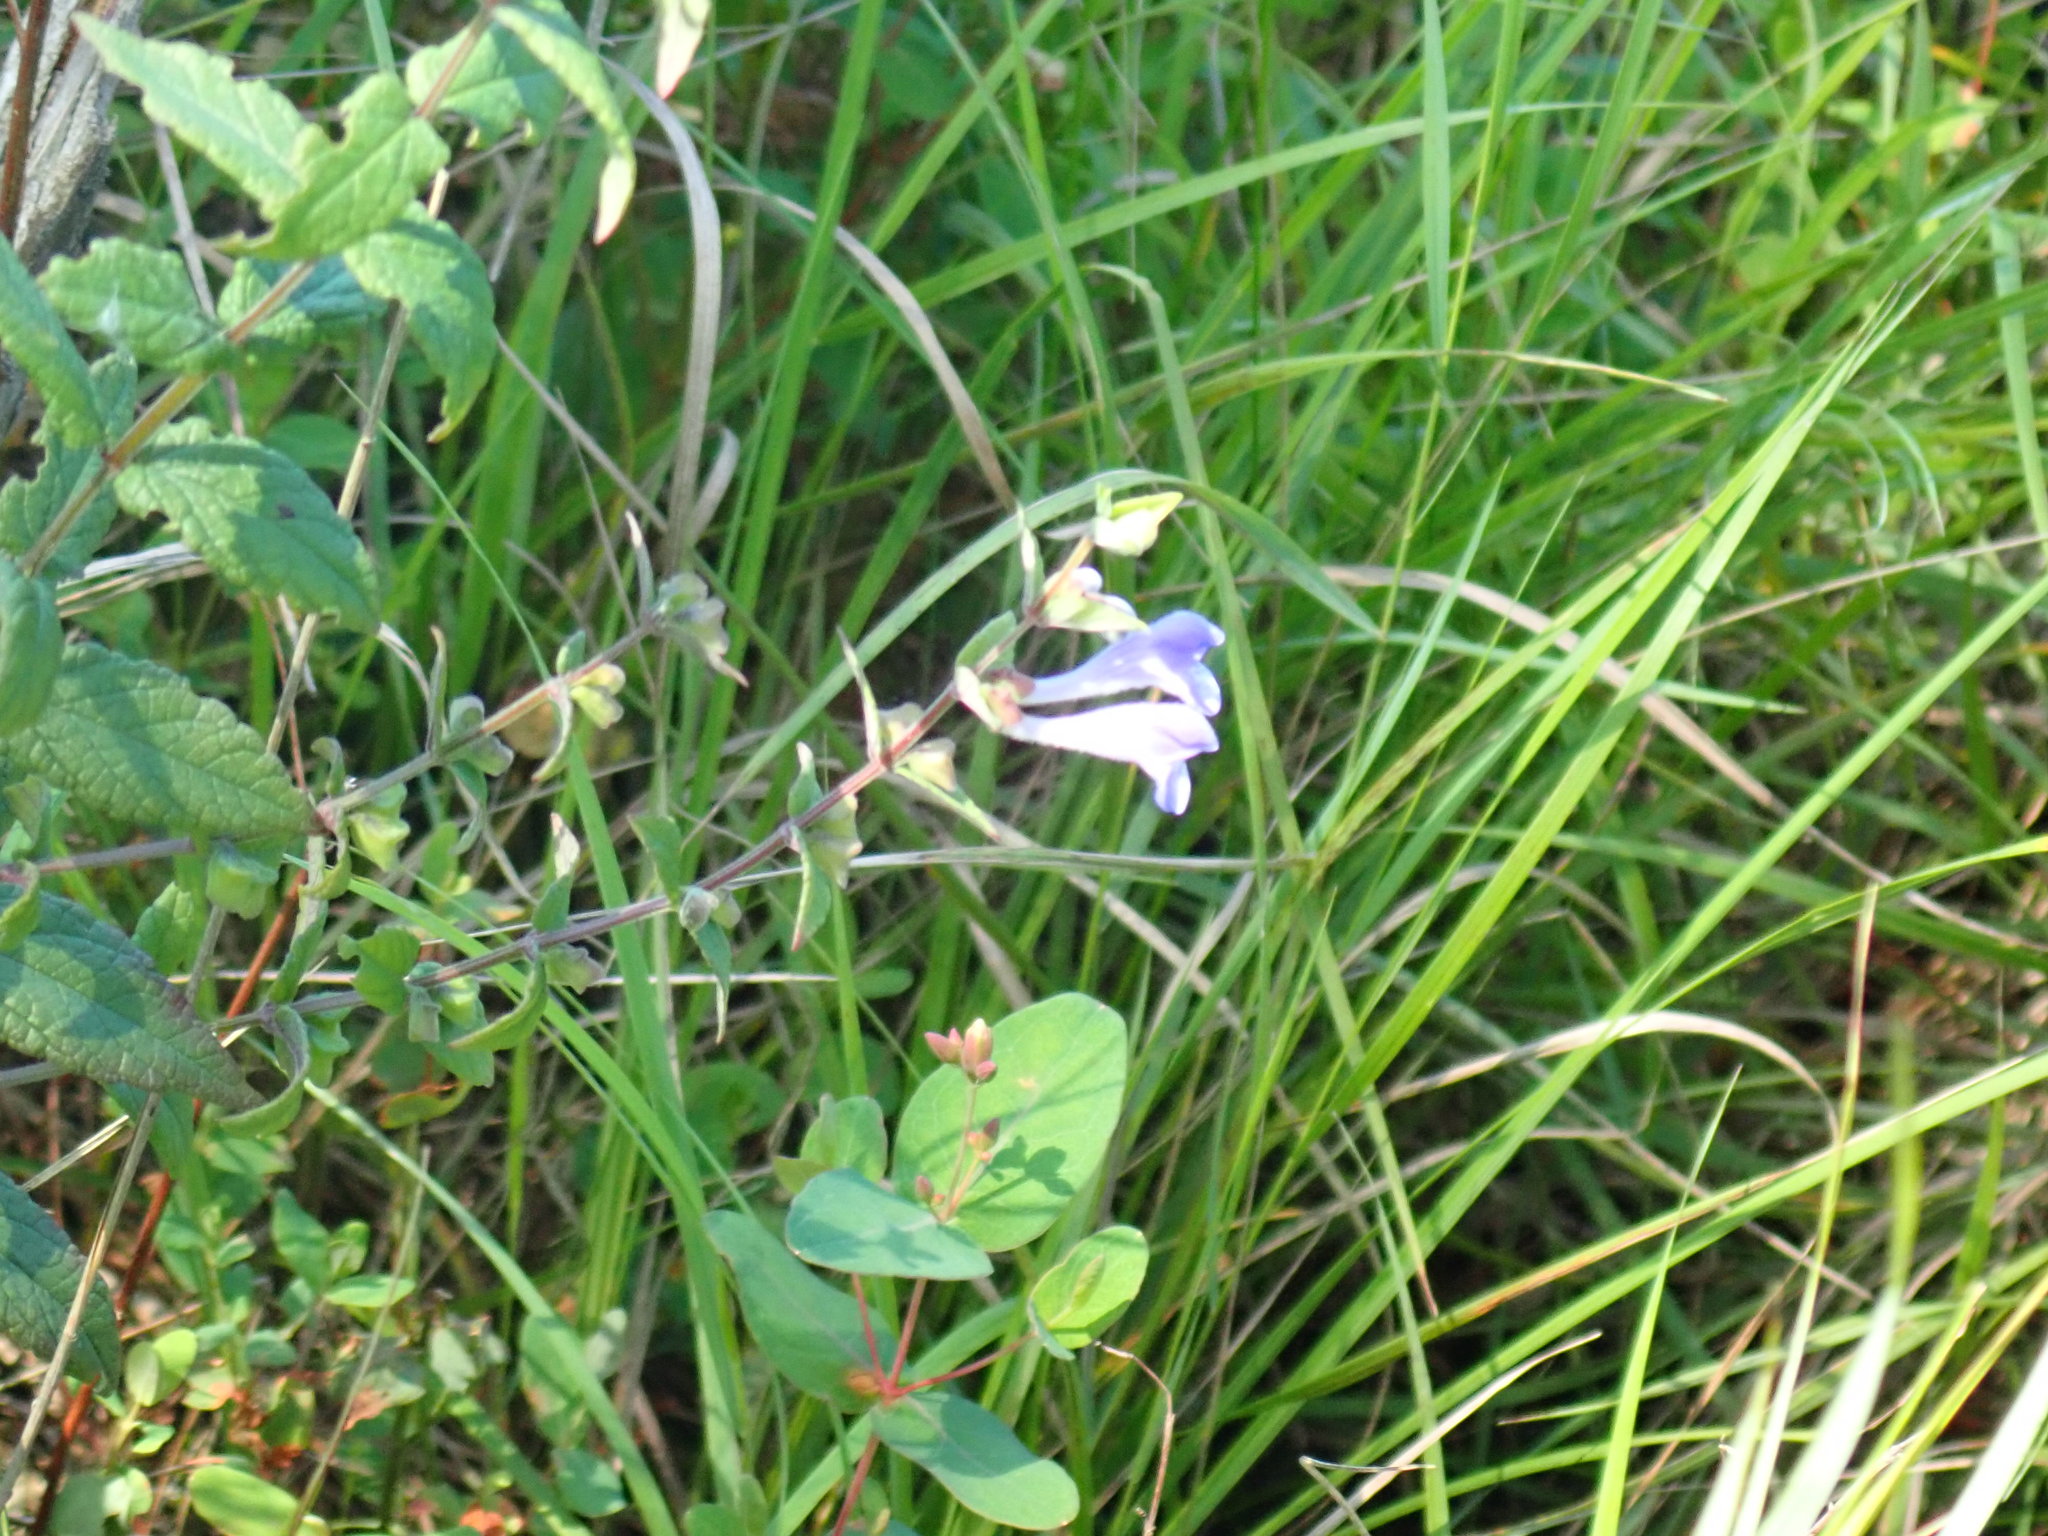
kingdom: Plantae
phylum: Tracheophyta
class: Magnoliopsida
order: Lamiales
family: Lamiaceae
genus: Scutellaria
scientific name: Scutellaria galericulata
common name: Skullcap
